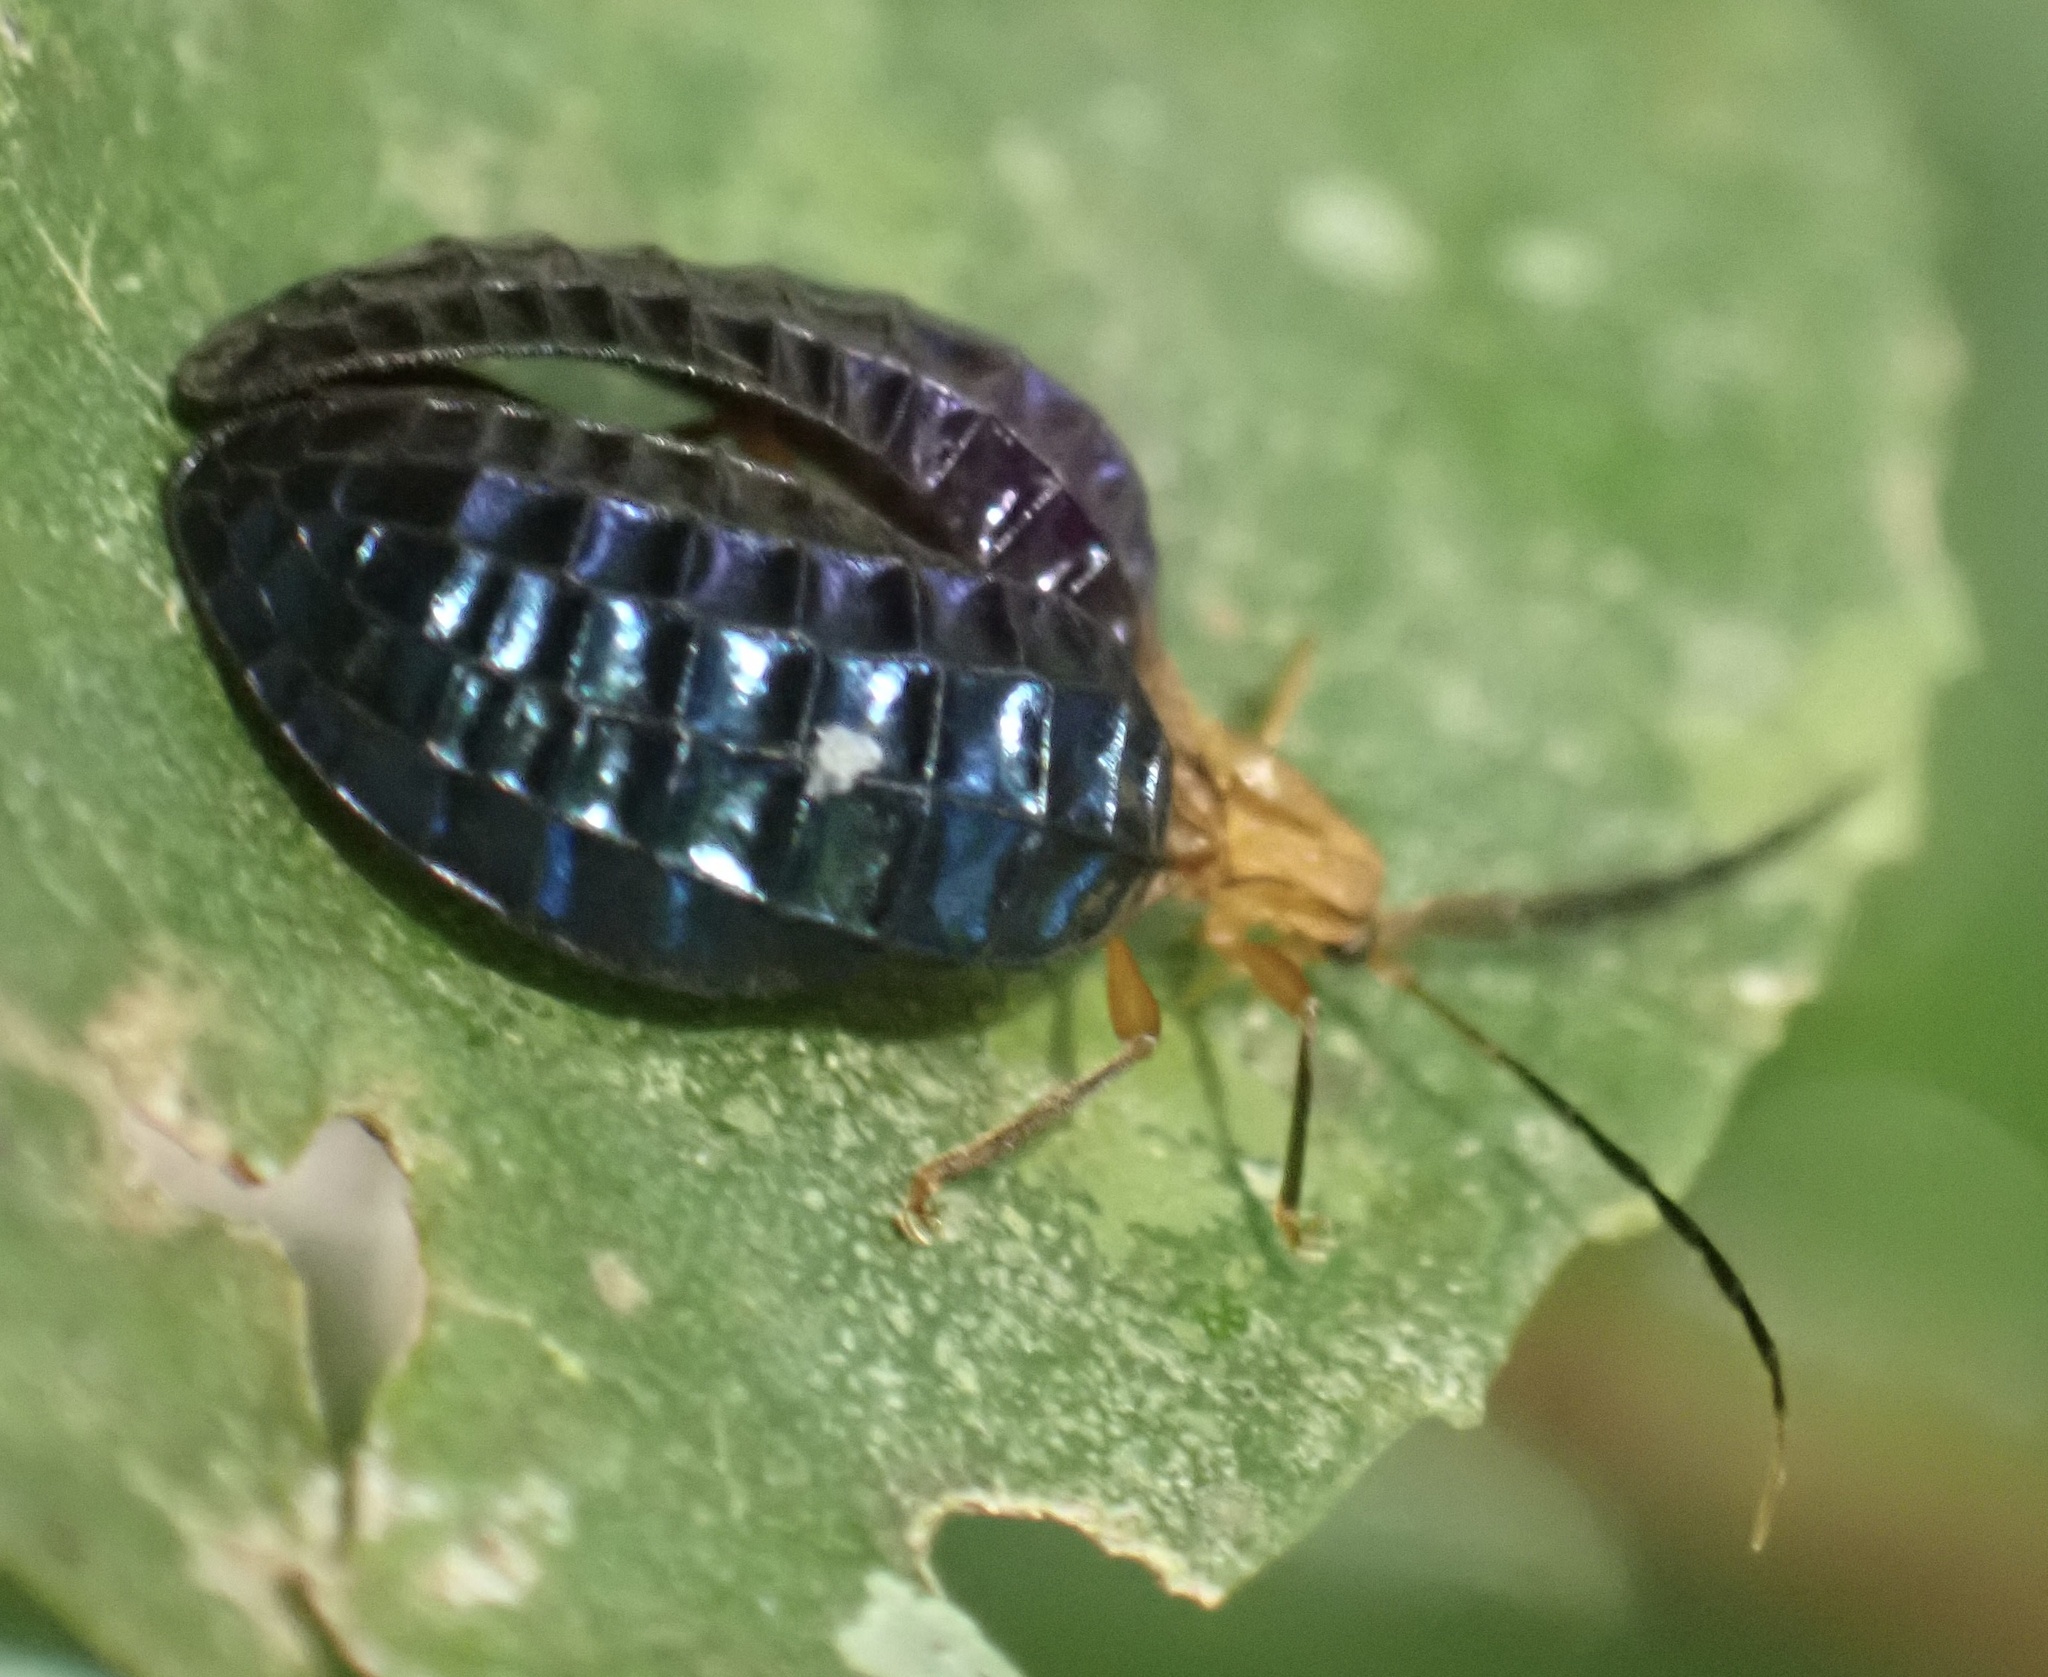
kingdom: Animalia
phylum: Arthropoda
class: Insecta
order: Coleoptera
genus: Broxylus
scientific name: Broxylus
